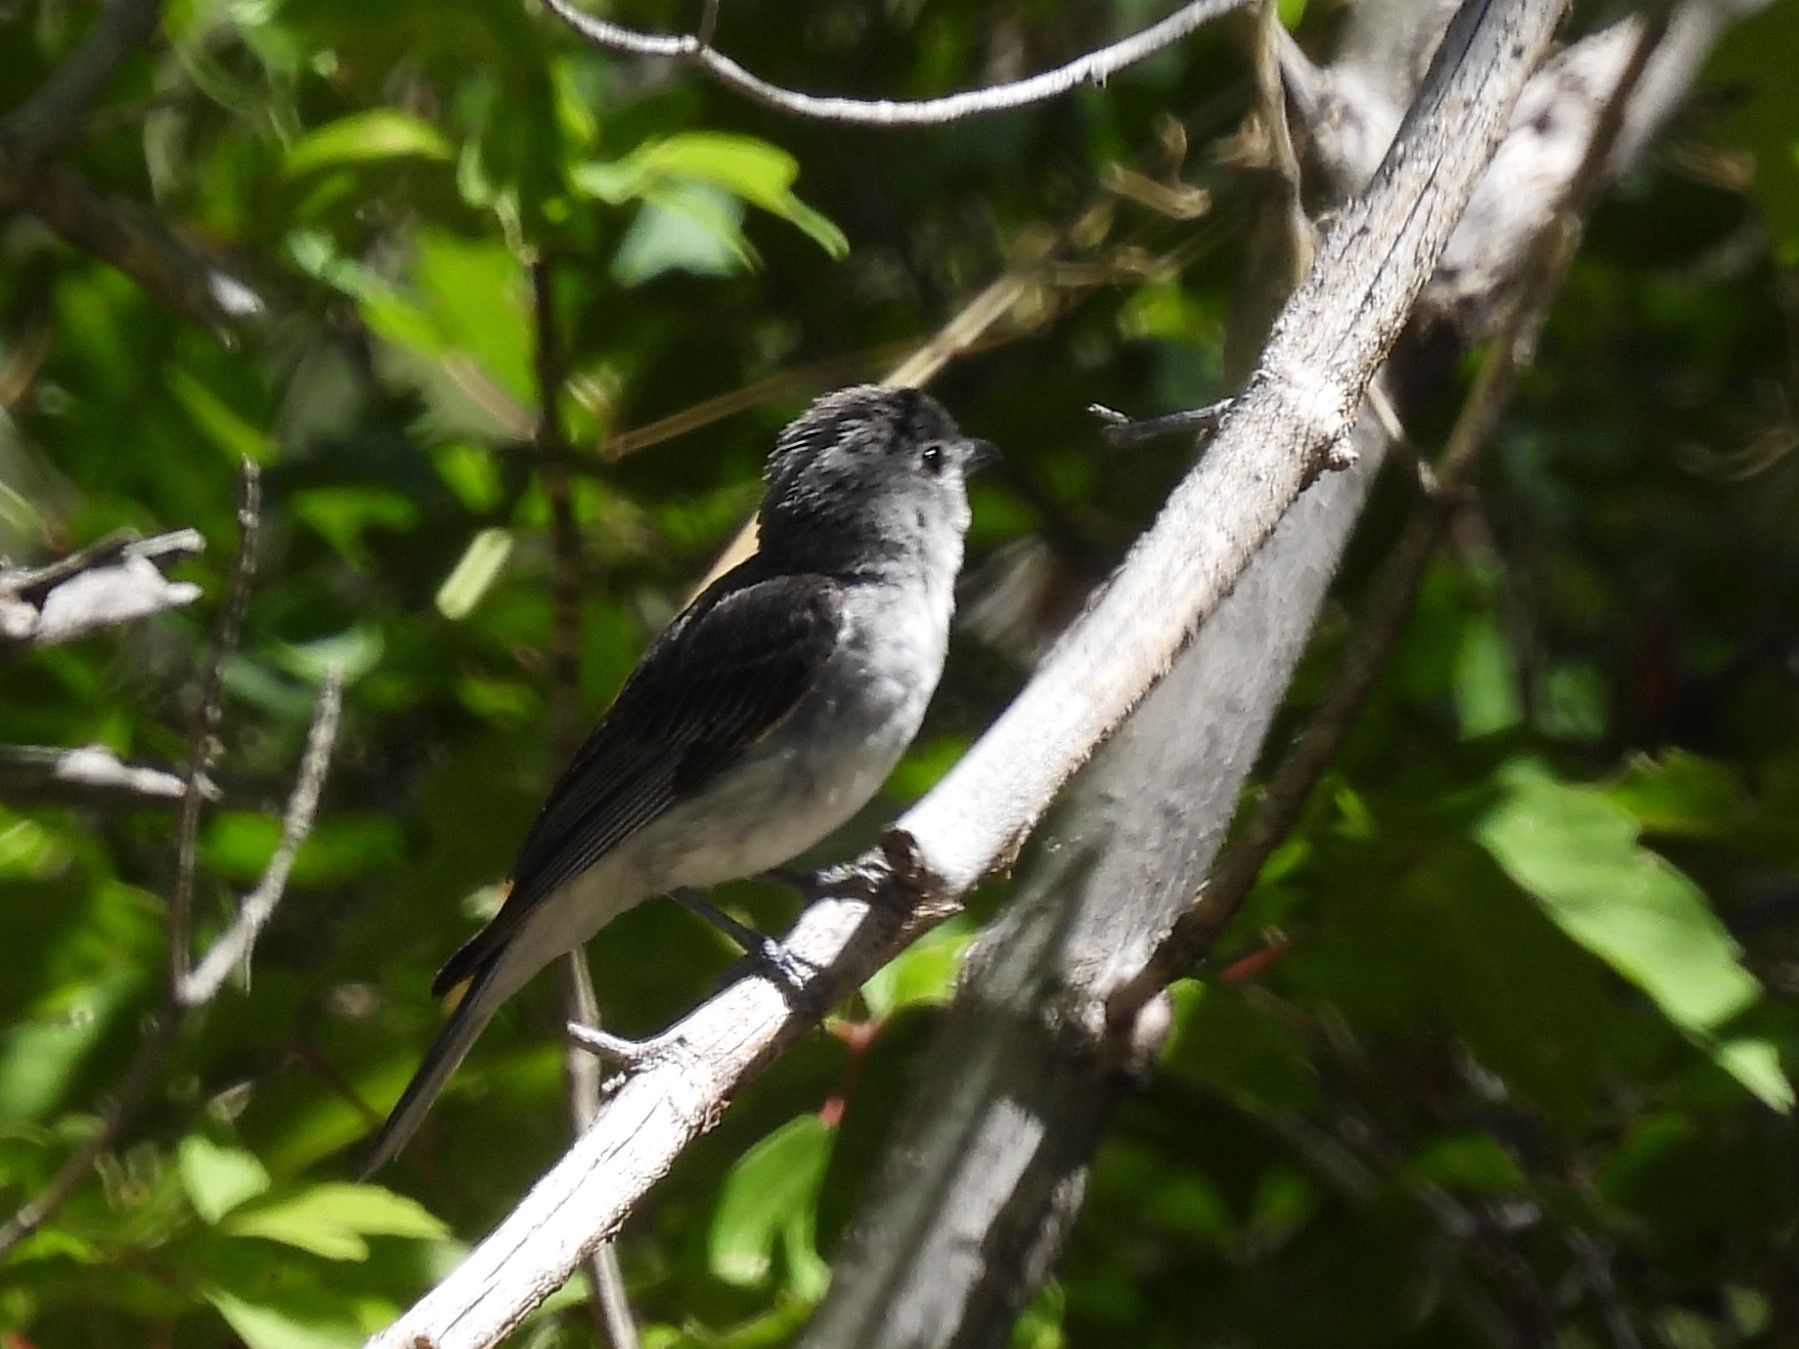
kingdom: Animalia
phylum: Chordata
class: Aves
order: Passeriformes
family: Vireonidae
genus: Vireo
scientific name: Vireo plumbeus
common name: Plumbeous vireo
